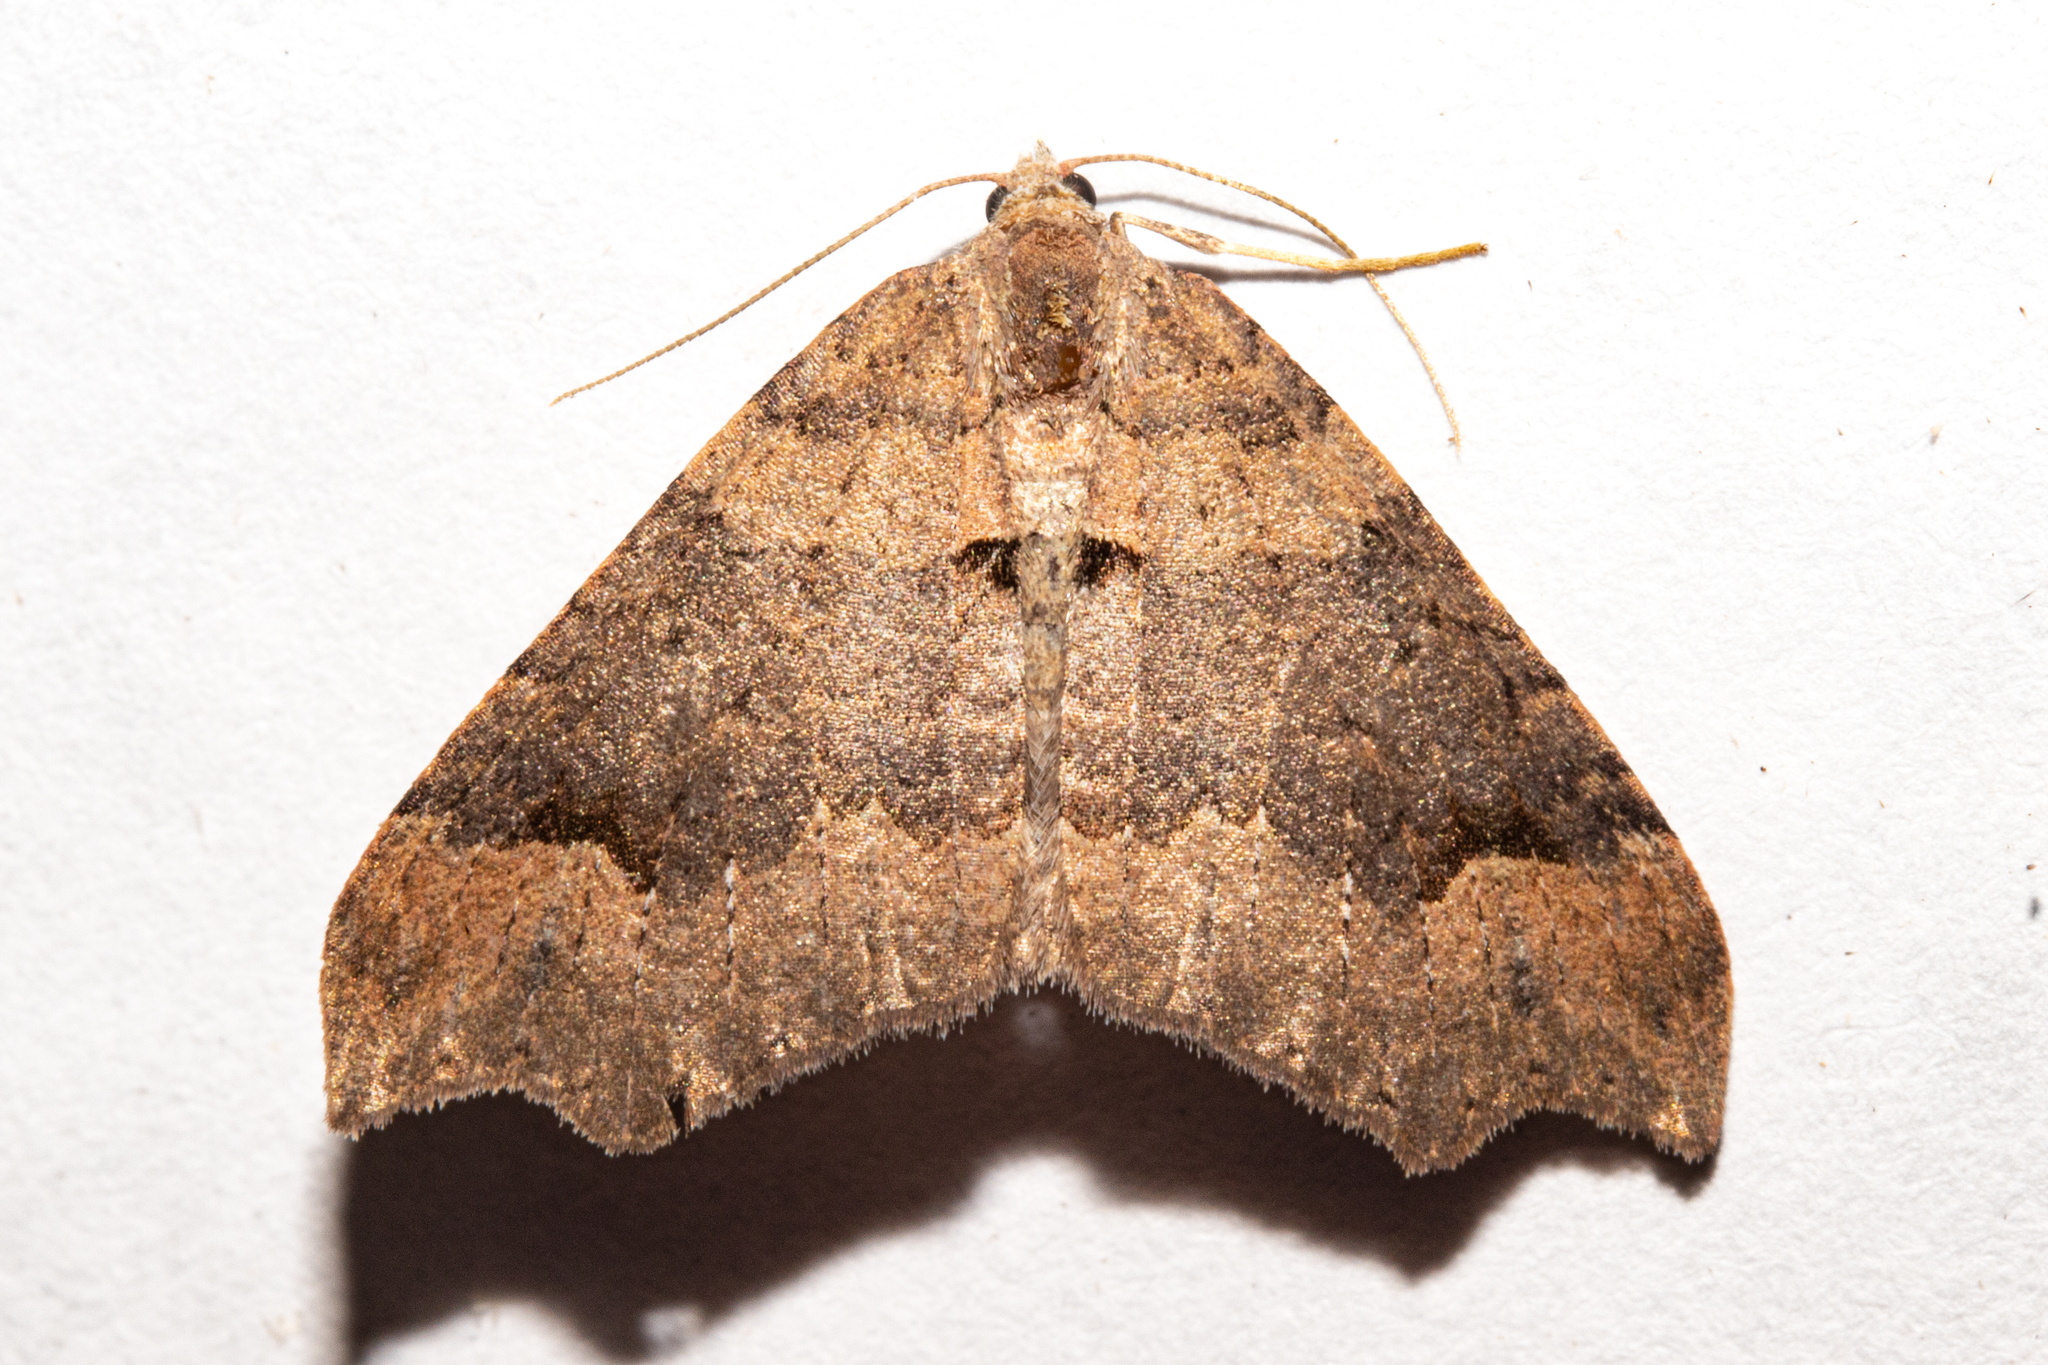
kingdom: Animalia
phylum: Arthropoda
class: Insecta
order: Lepidoptera
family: Geometridae
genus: Austrocidaria
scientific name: Austrocidaria parora
